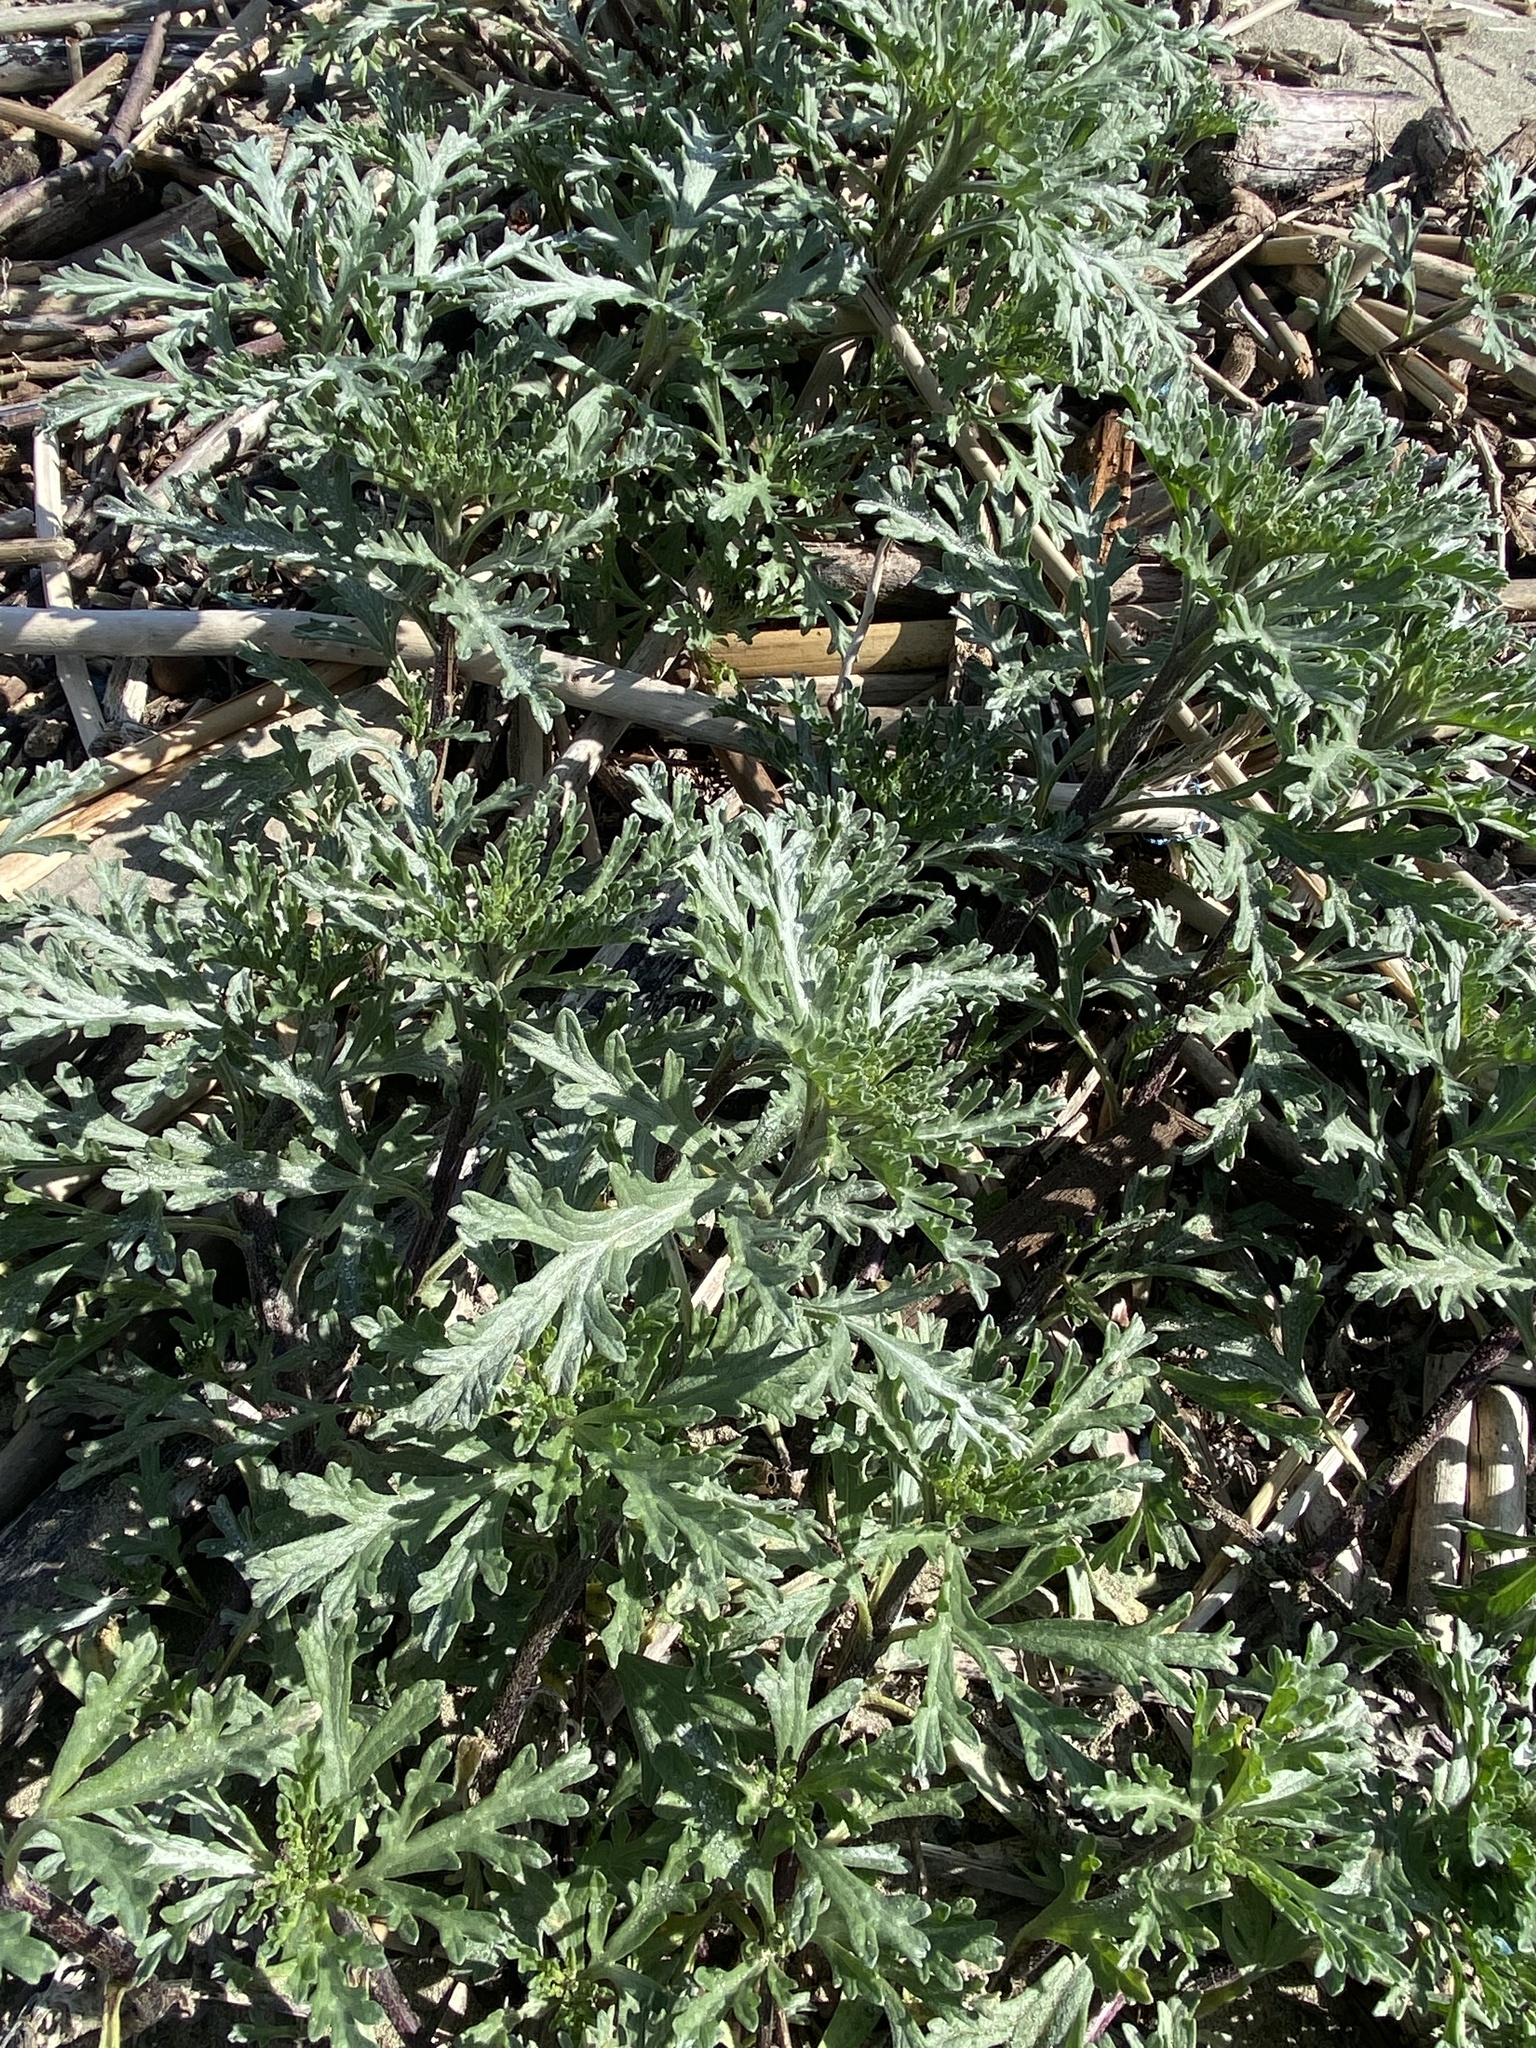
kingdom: Plantae
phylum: Tracheophyta
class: Magnoliopsida
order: Asterales
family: Asteraceae
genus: Ambrosia
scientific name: Ambrosia chamissonis
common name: Beachbur
